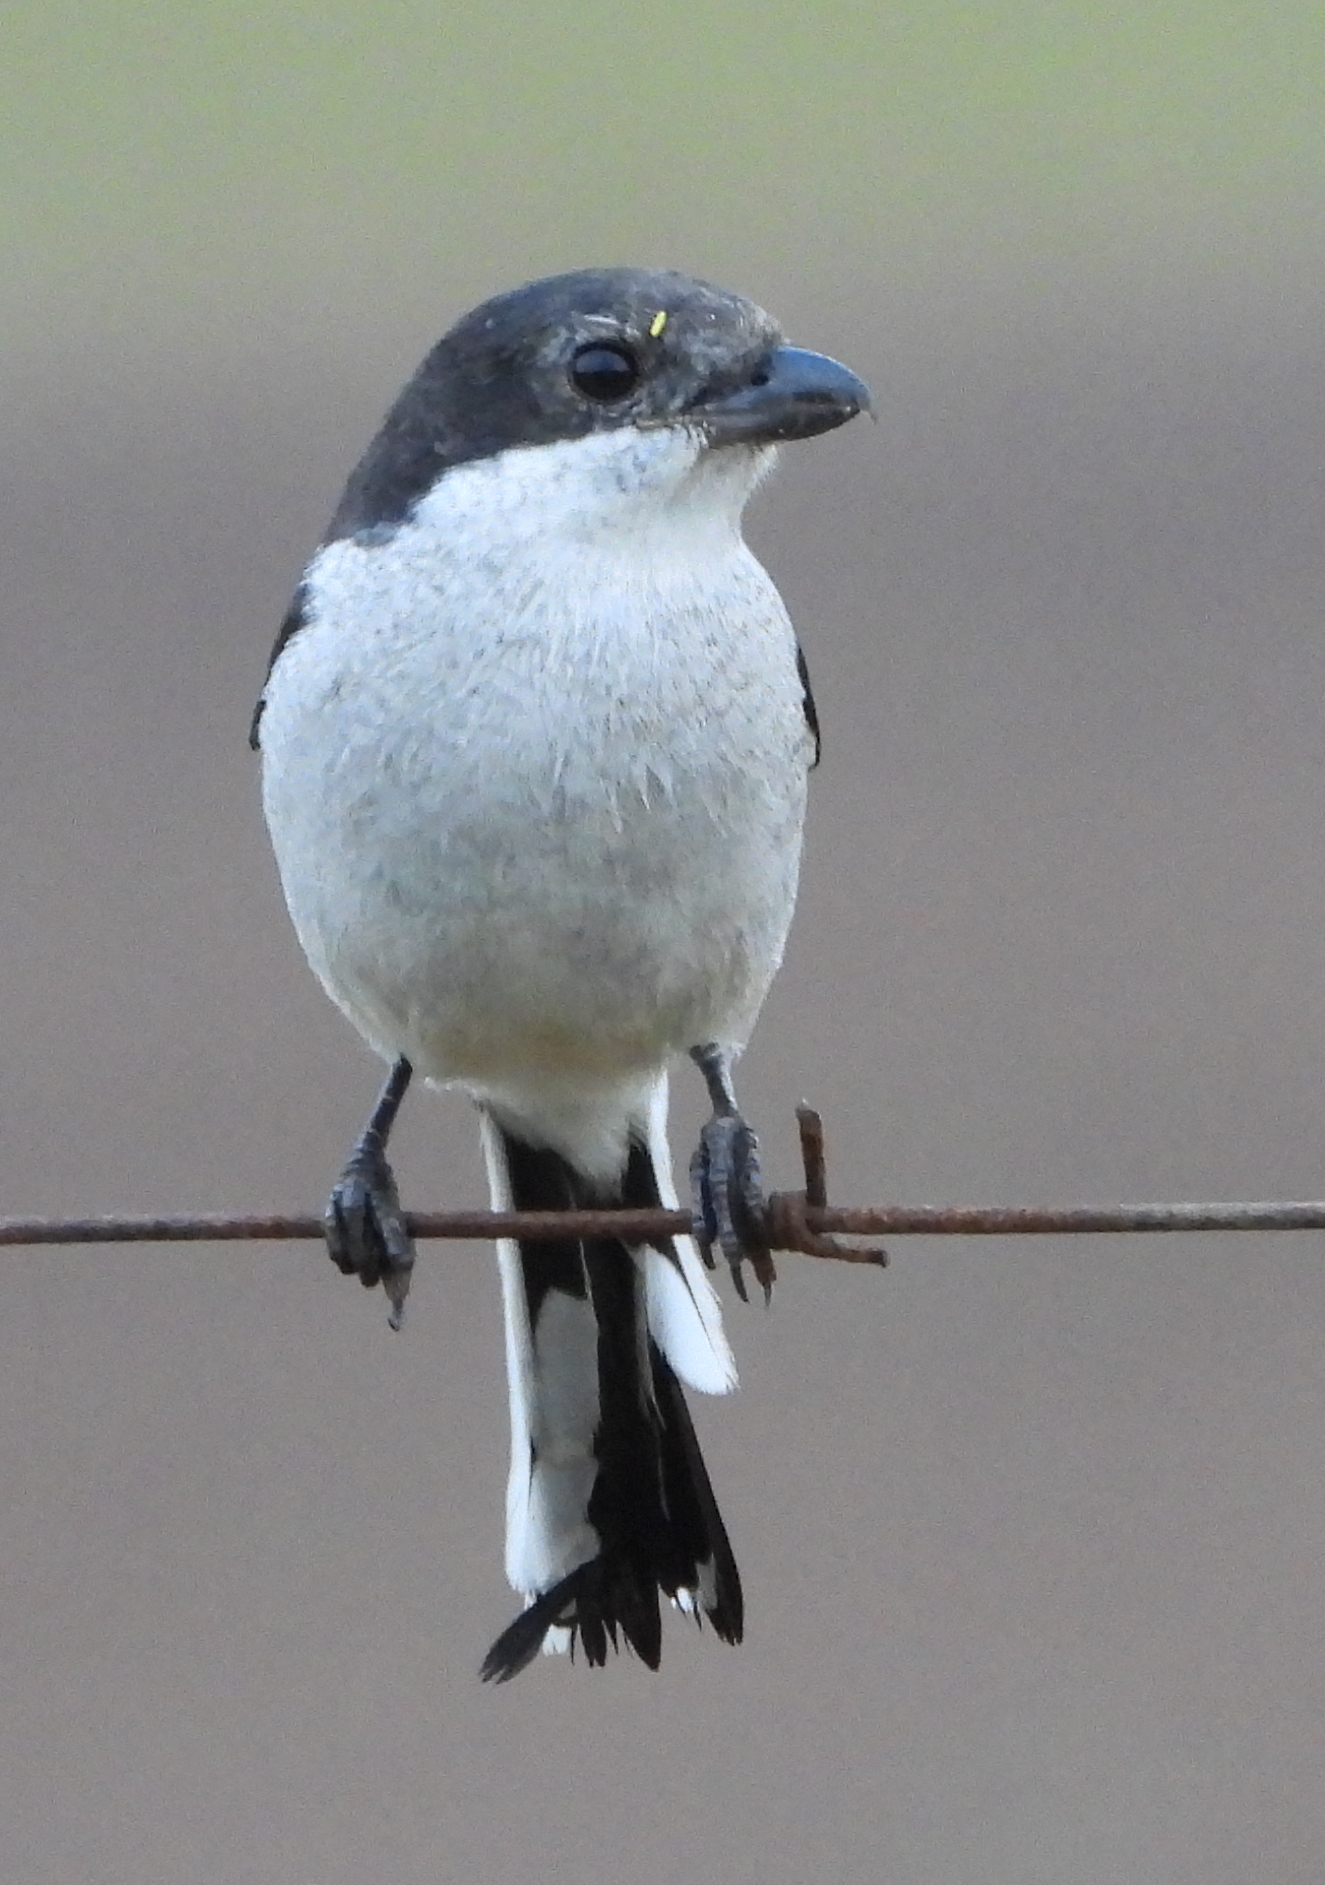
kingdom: Animalia
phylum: Chordata
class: Aves
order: Passeriformes
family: Laniidae
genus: Lanius
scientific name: Lanius collaris
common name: Southern fiscal
